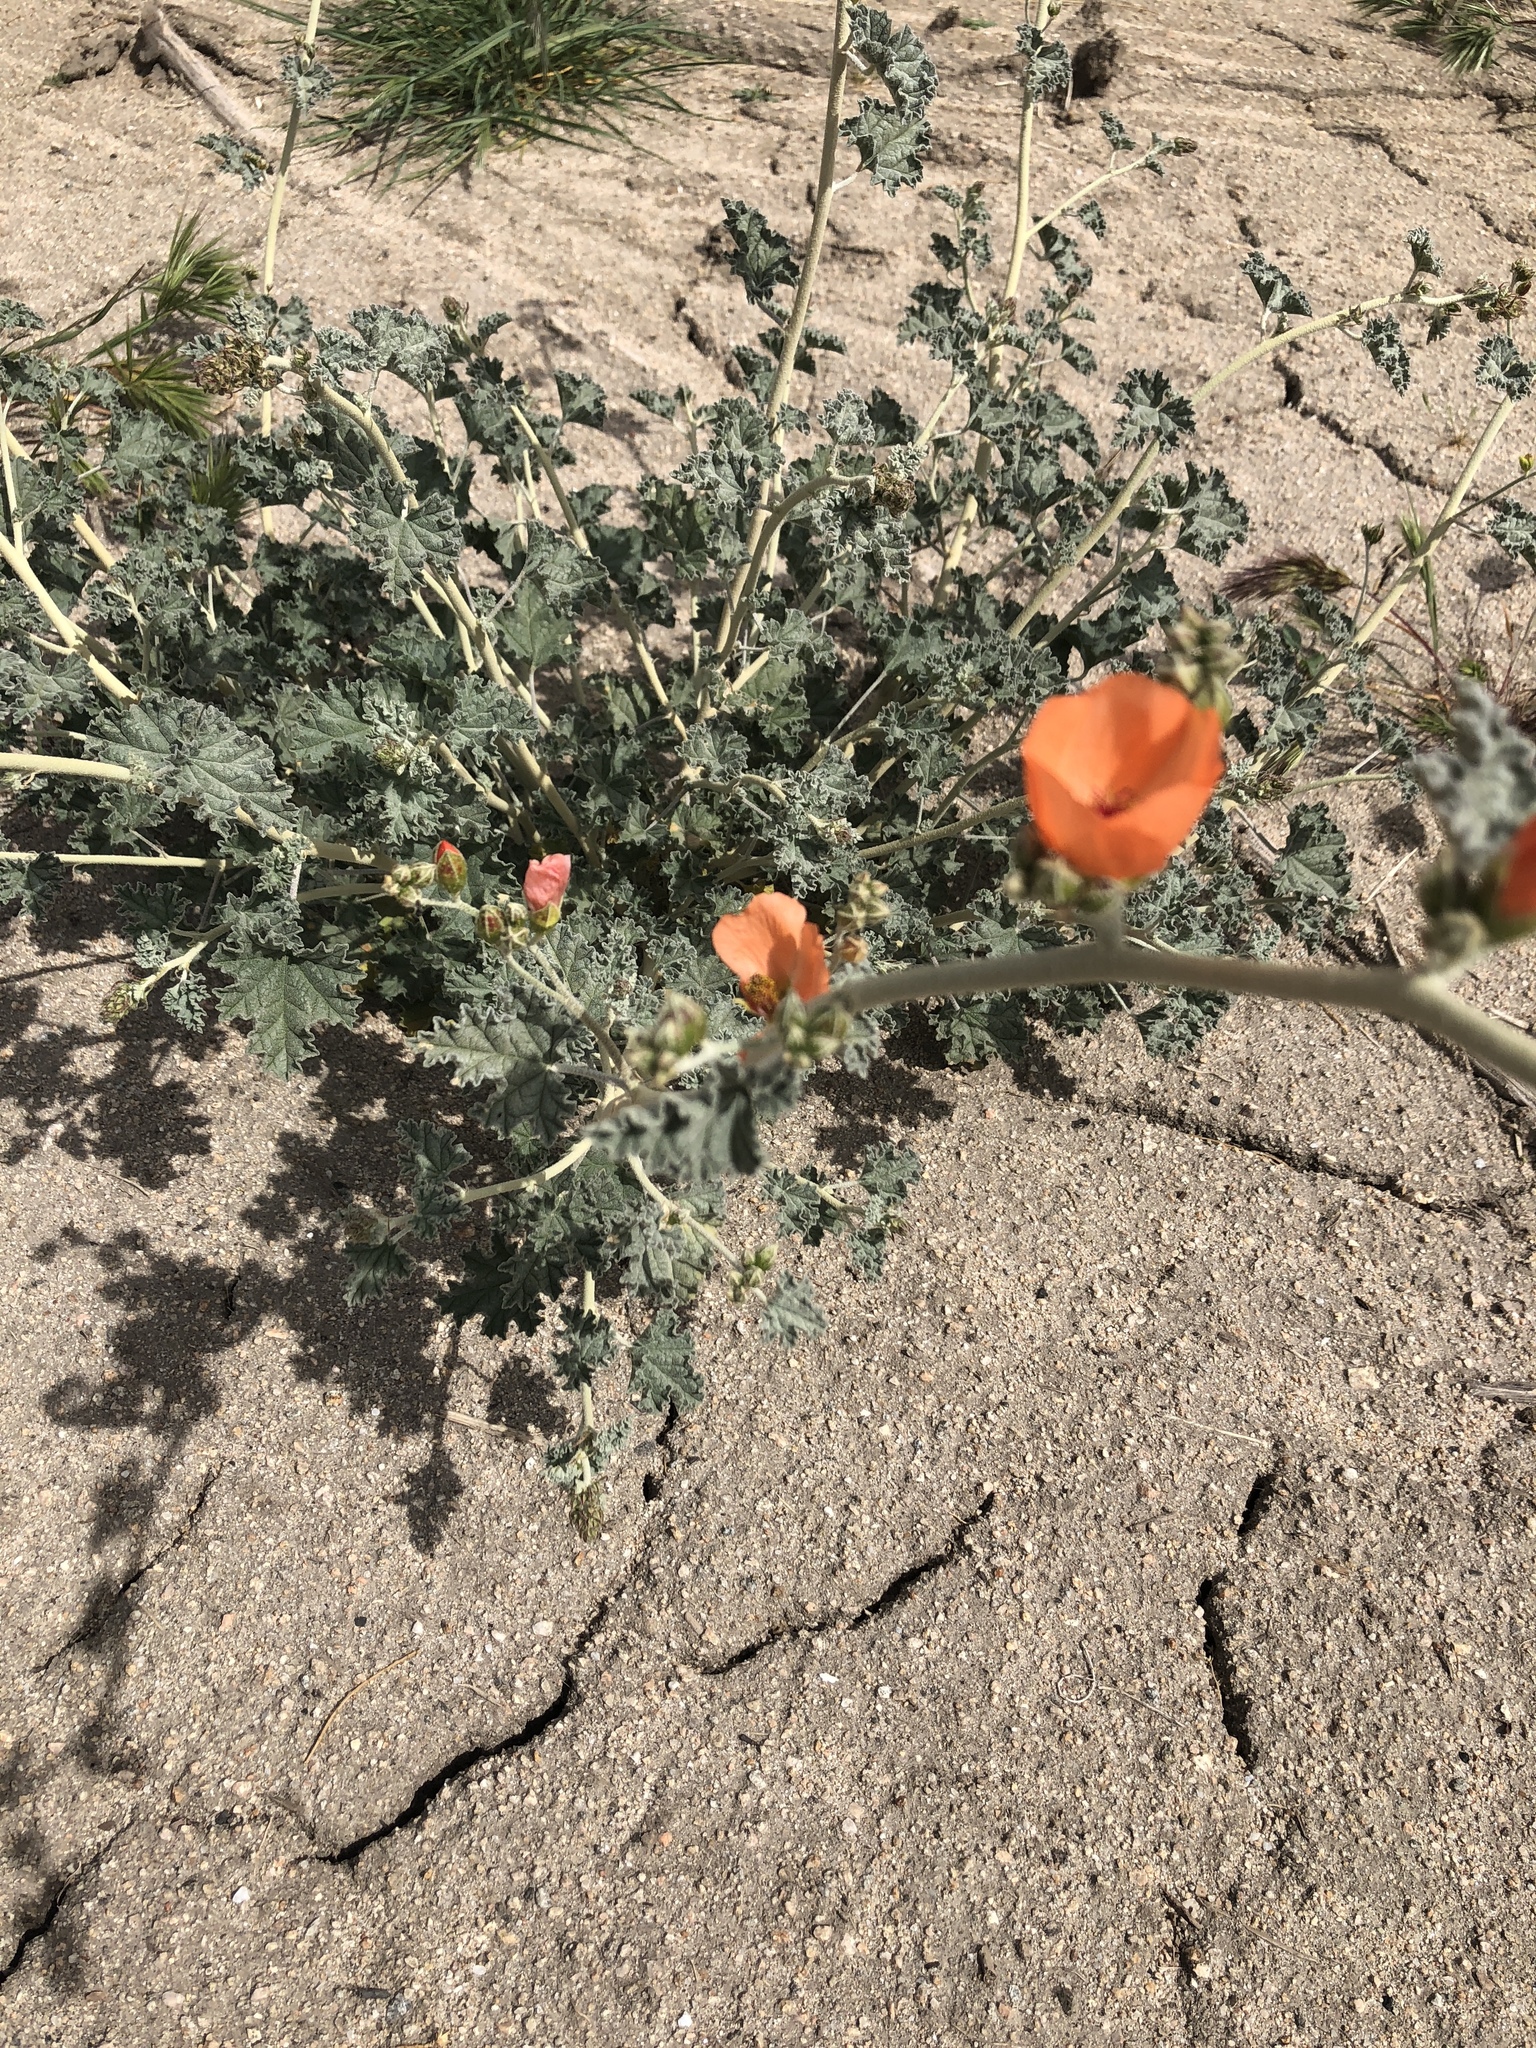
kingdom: Plantae
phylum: Tracheophyta
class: Magnoliopsida
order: Malvales
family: Malvaceae
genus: Sphaeralcea
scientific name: Sphaeralcea ambigua
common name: Apricot globe-mallow
